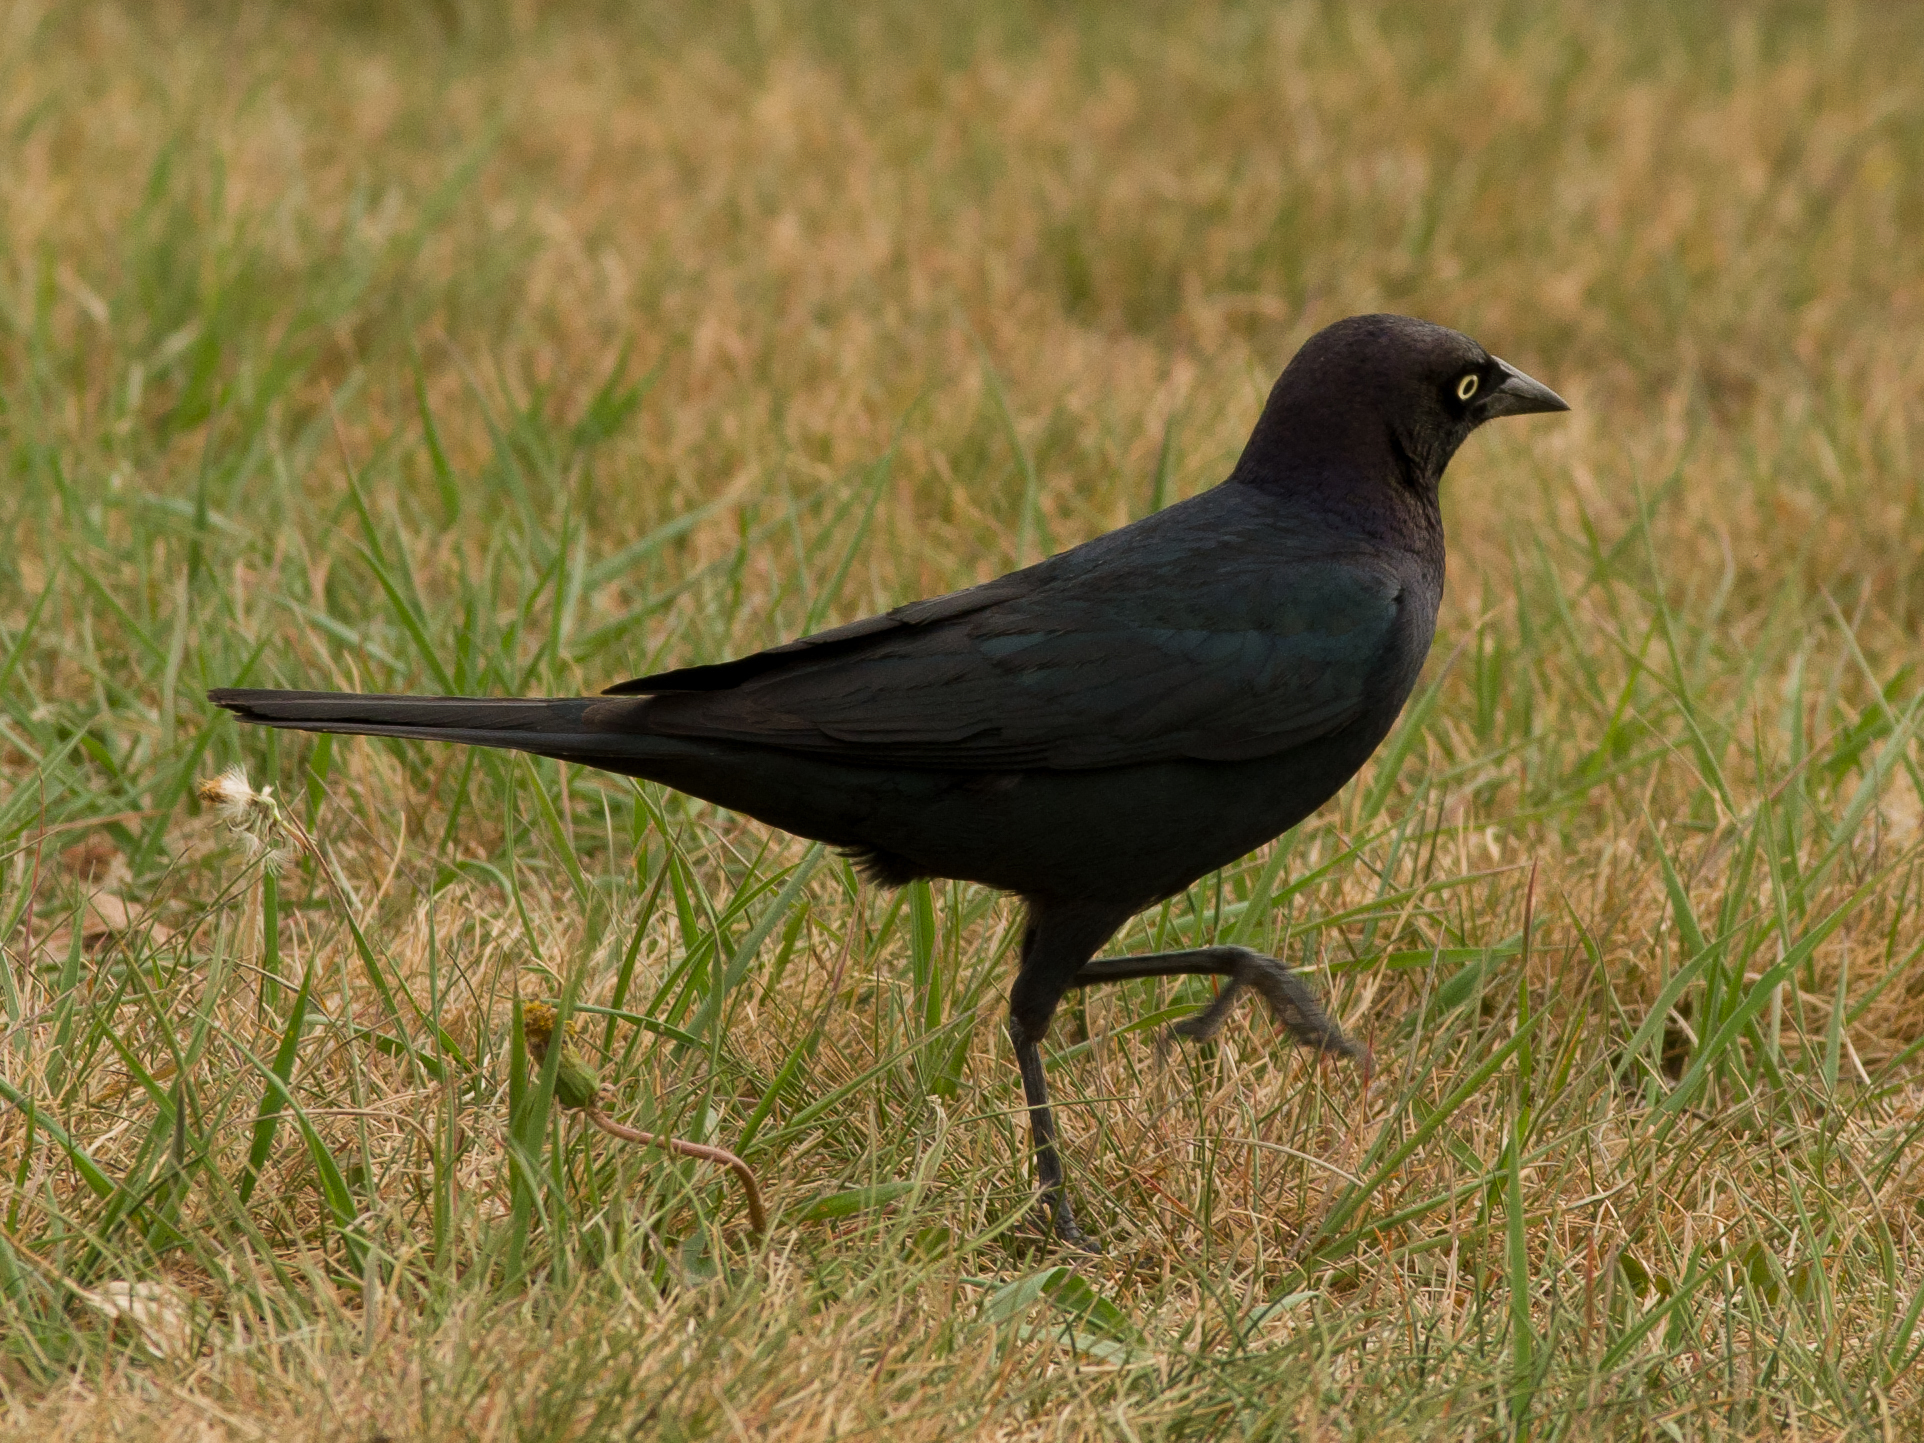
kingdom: Animalia
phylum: Chordata
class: Aves
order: Passeriformes
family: Icteridae
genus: Euphagus
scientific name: Euphagus cyanocephalus
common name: Brewer's blackbird
